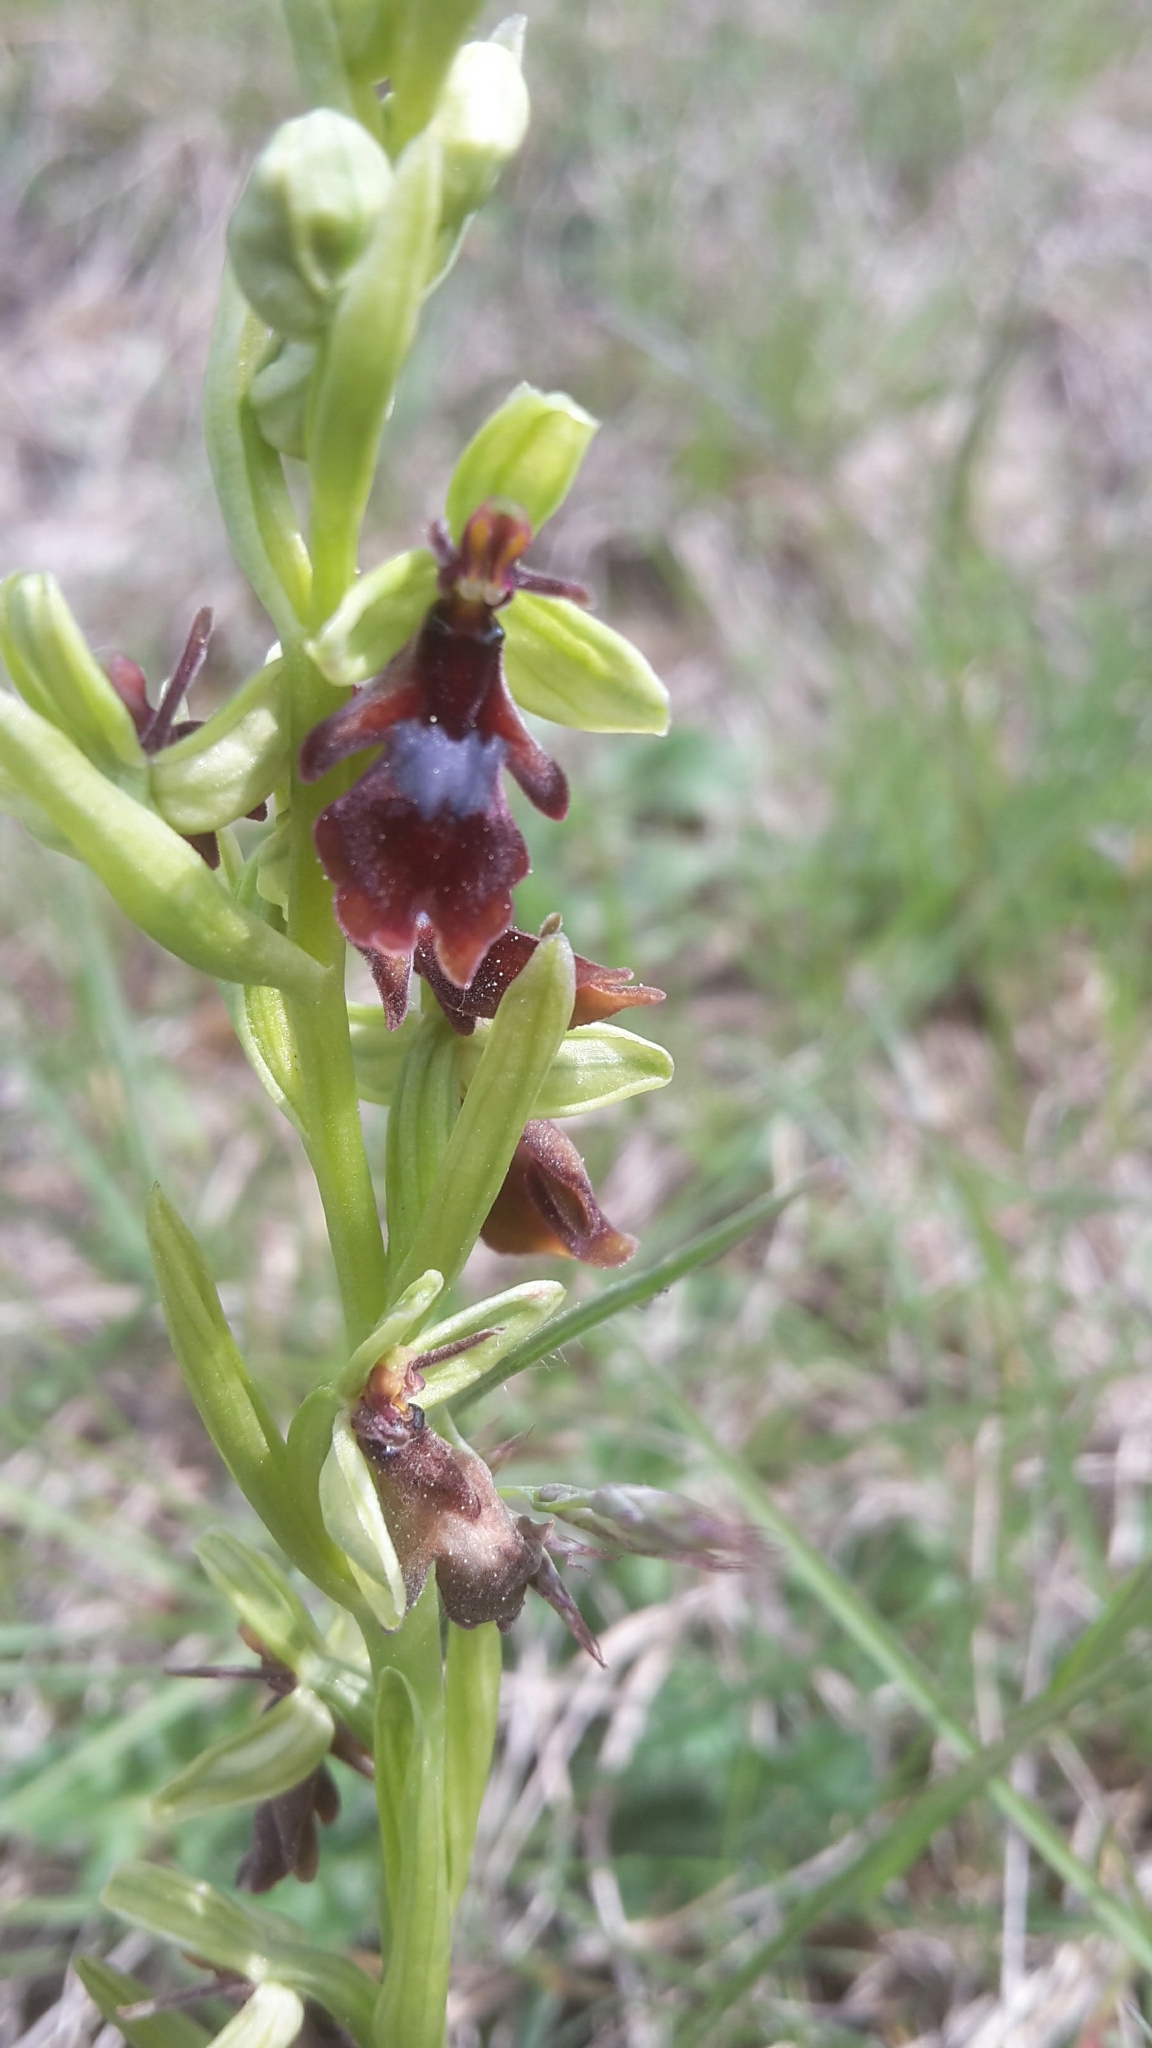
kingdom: Plantae
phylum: Tracheophyta
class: Liliopsida
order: Asparagales
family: Orchidaceae
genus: Ophrys
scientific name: Ophrys insectifera
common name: Fly orchid
